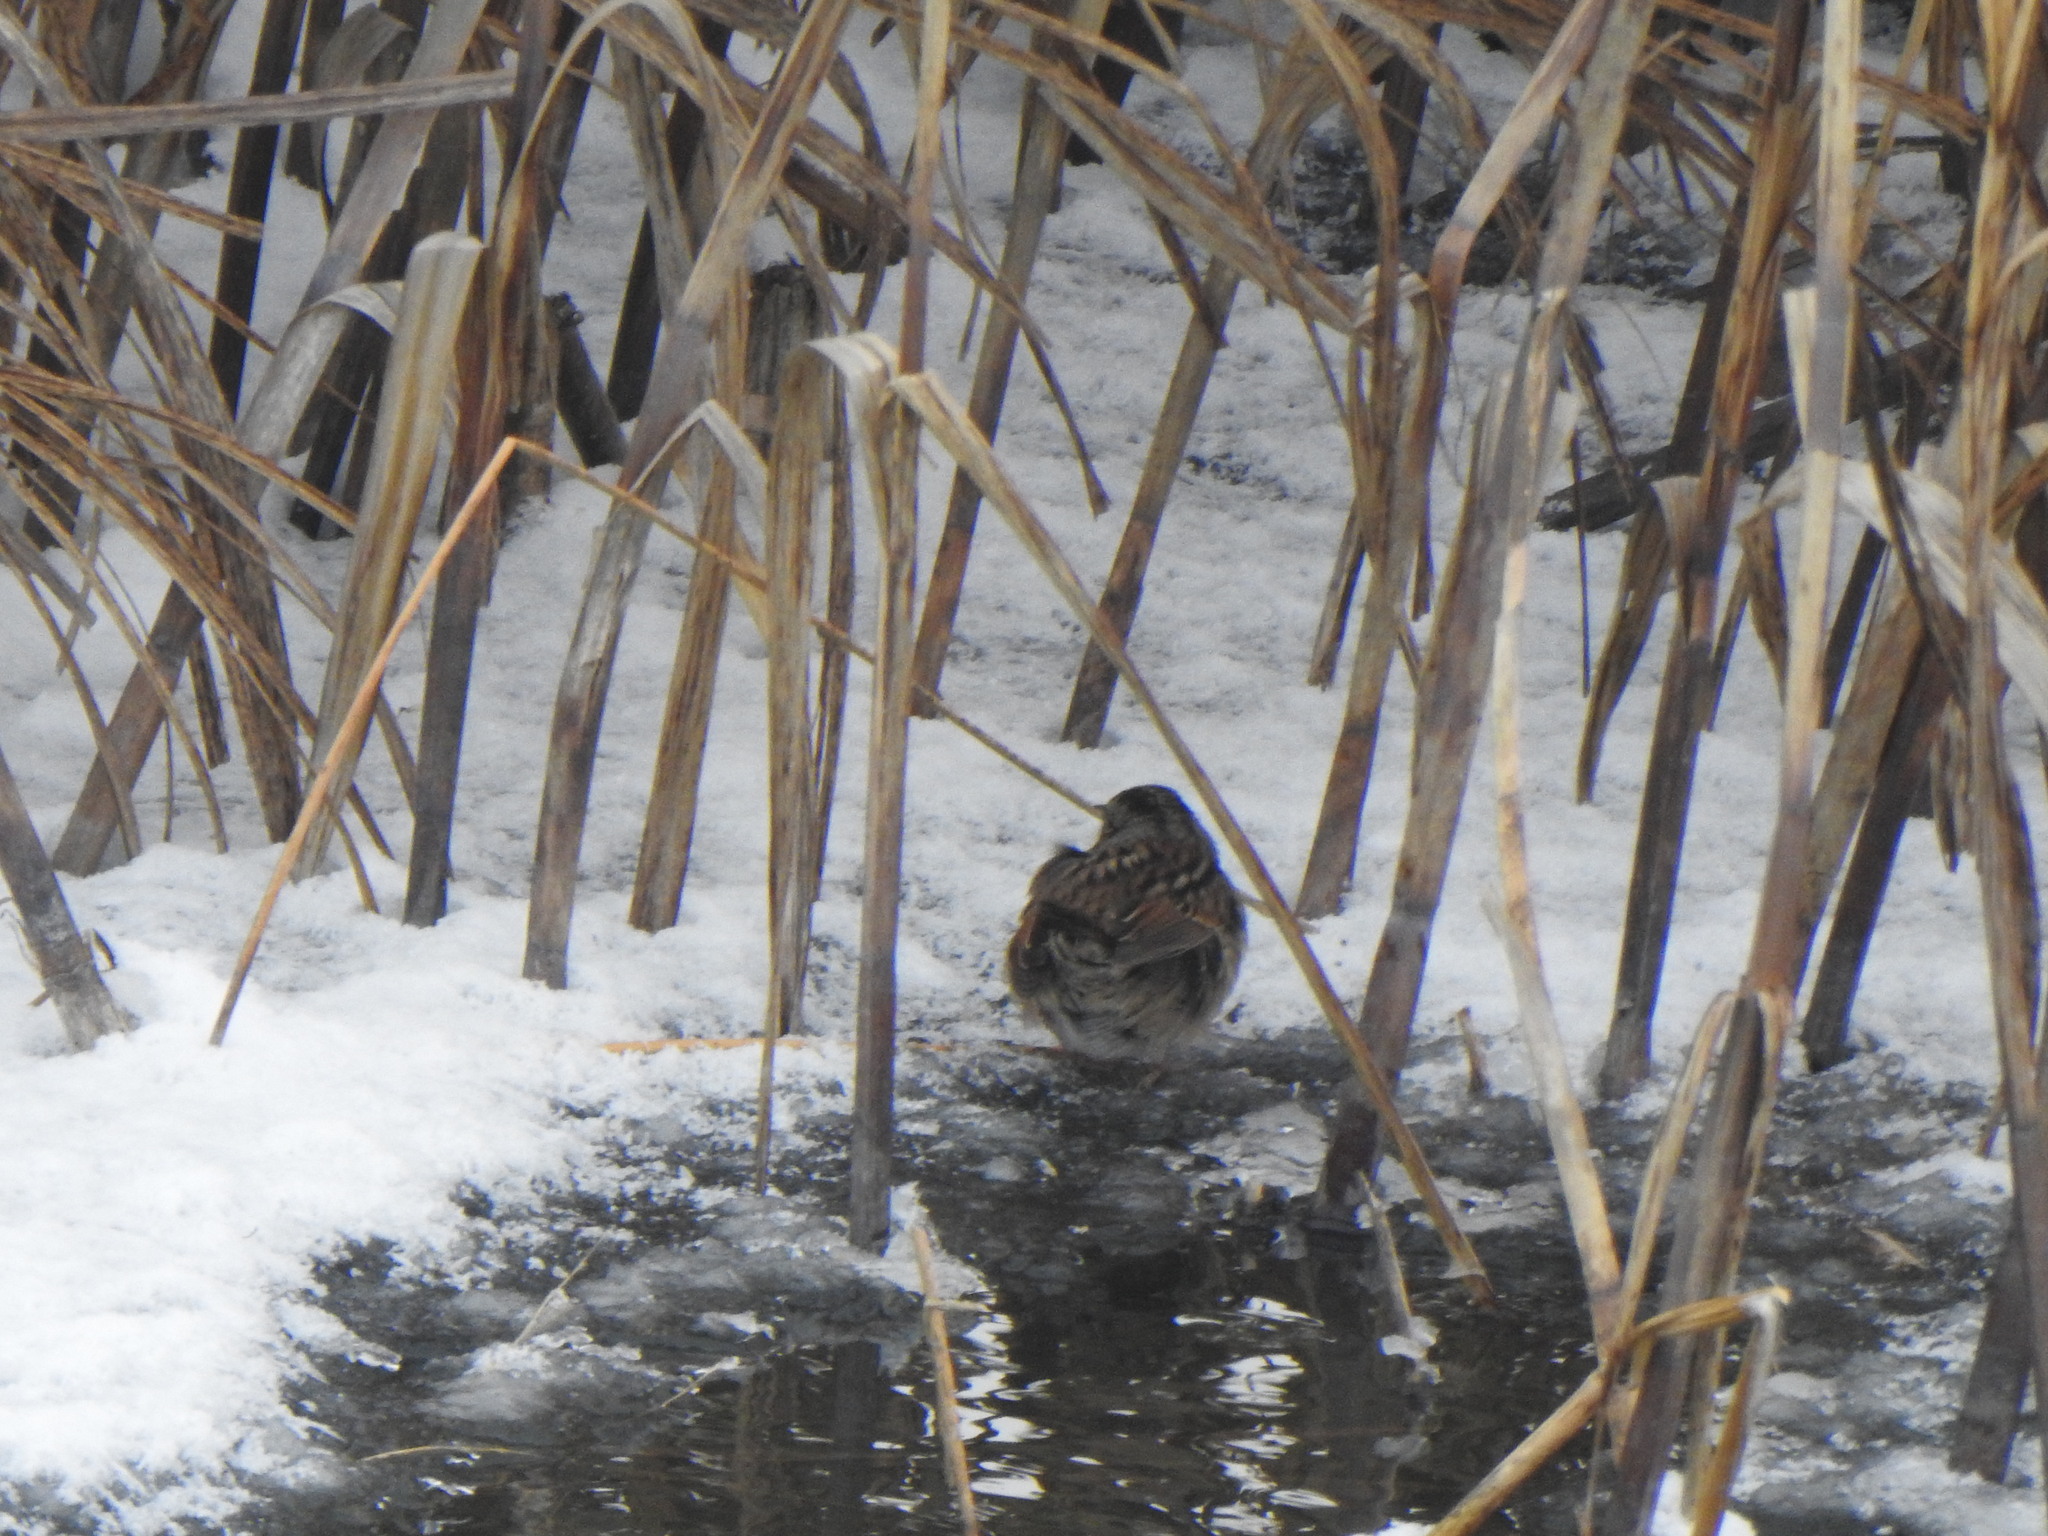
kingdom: Animalia
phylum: Chordata
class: Aves
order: Passeriformes
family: Passerellidae
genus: Melospiza
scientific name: Melospiza georgiana
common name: Swamp sparrow
